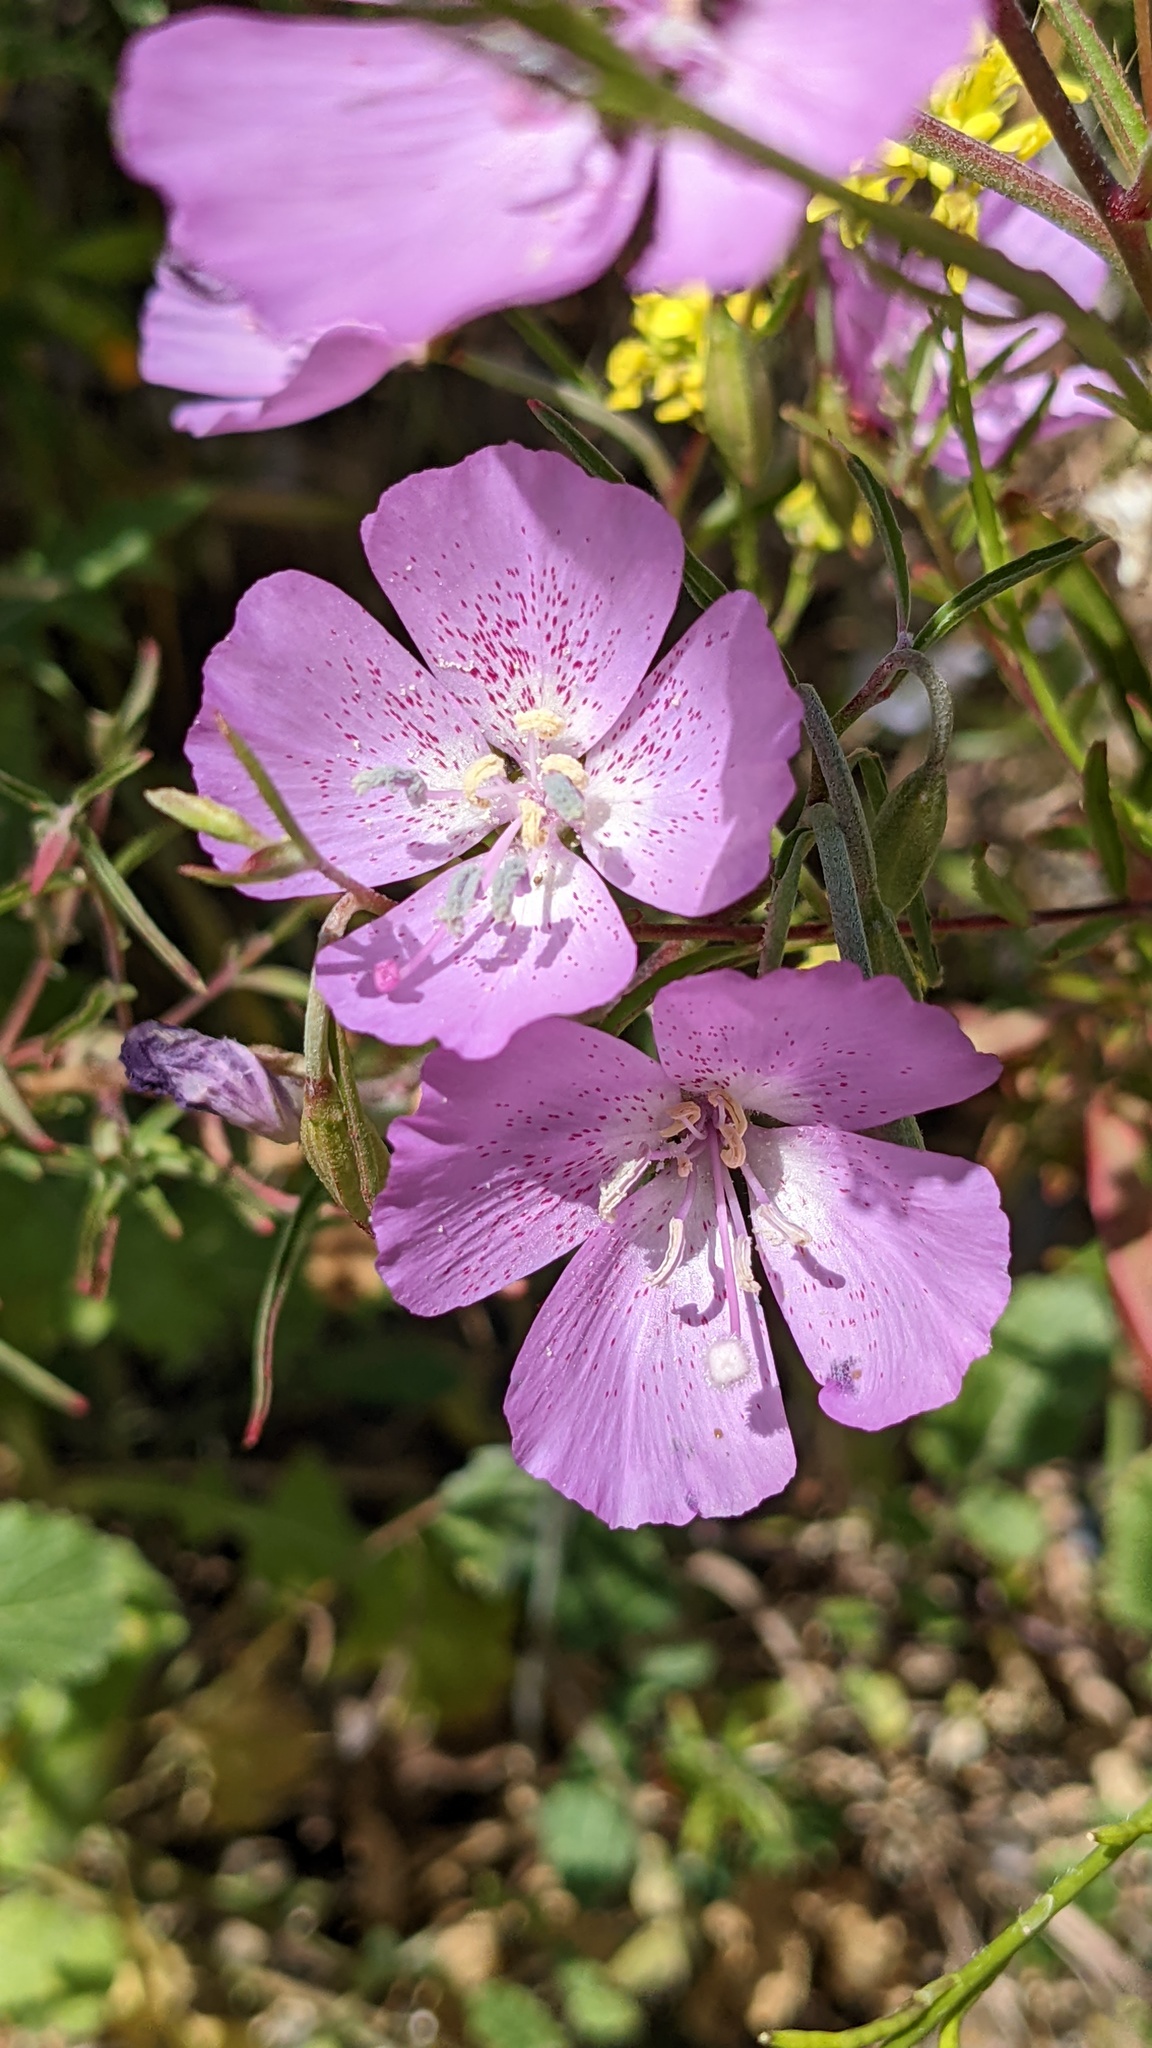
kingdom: Plantae
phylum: Tracheophyta
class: Magnoliopsida
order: Myrtales
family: Onagraceae
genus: Clarkia
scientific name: Clarkia bottae
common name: Punch-bowl godetia
